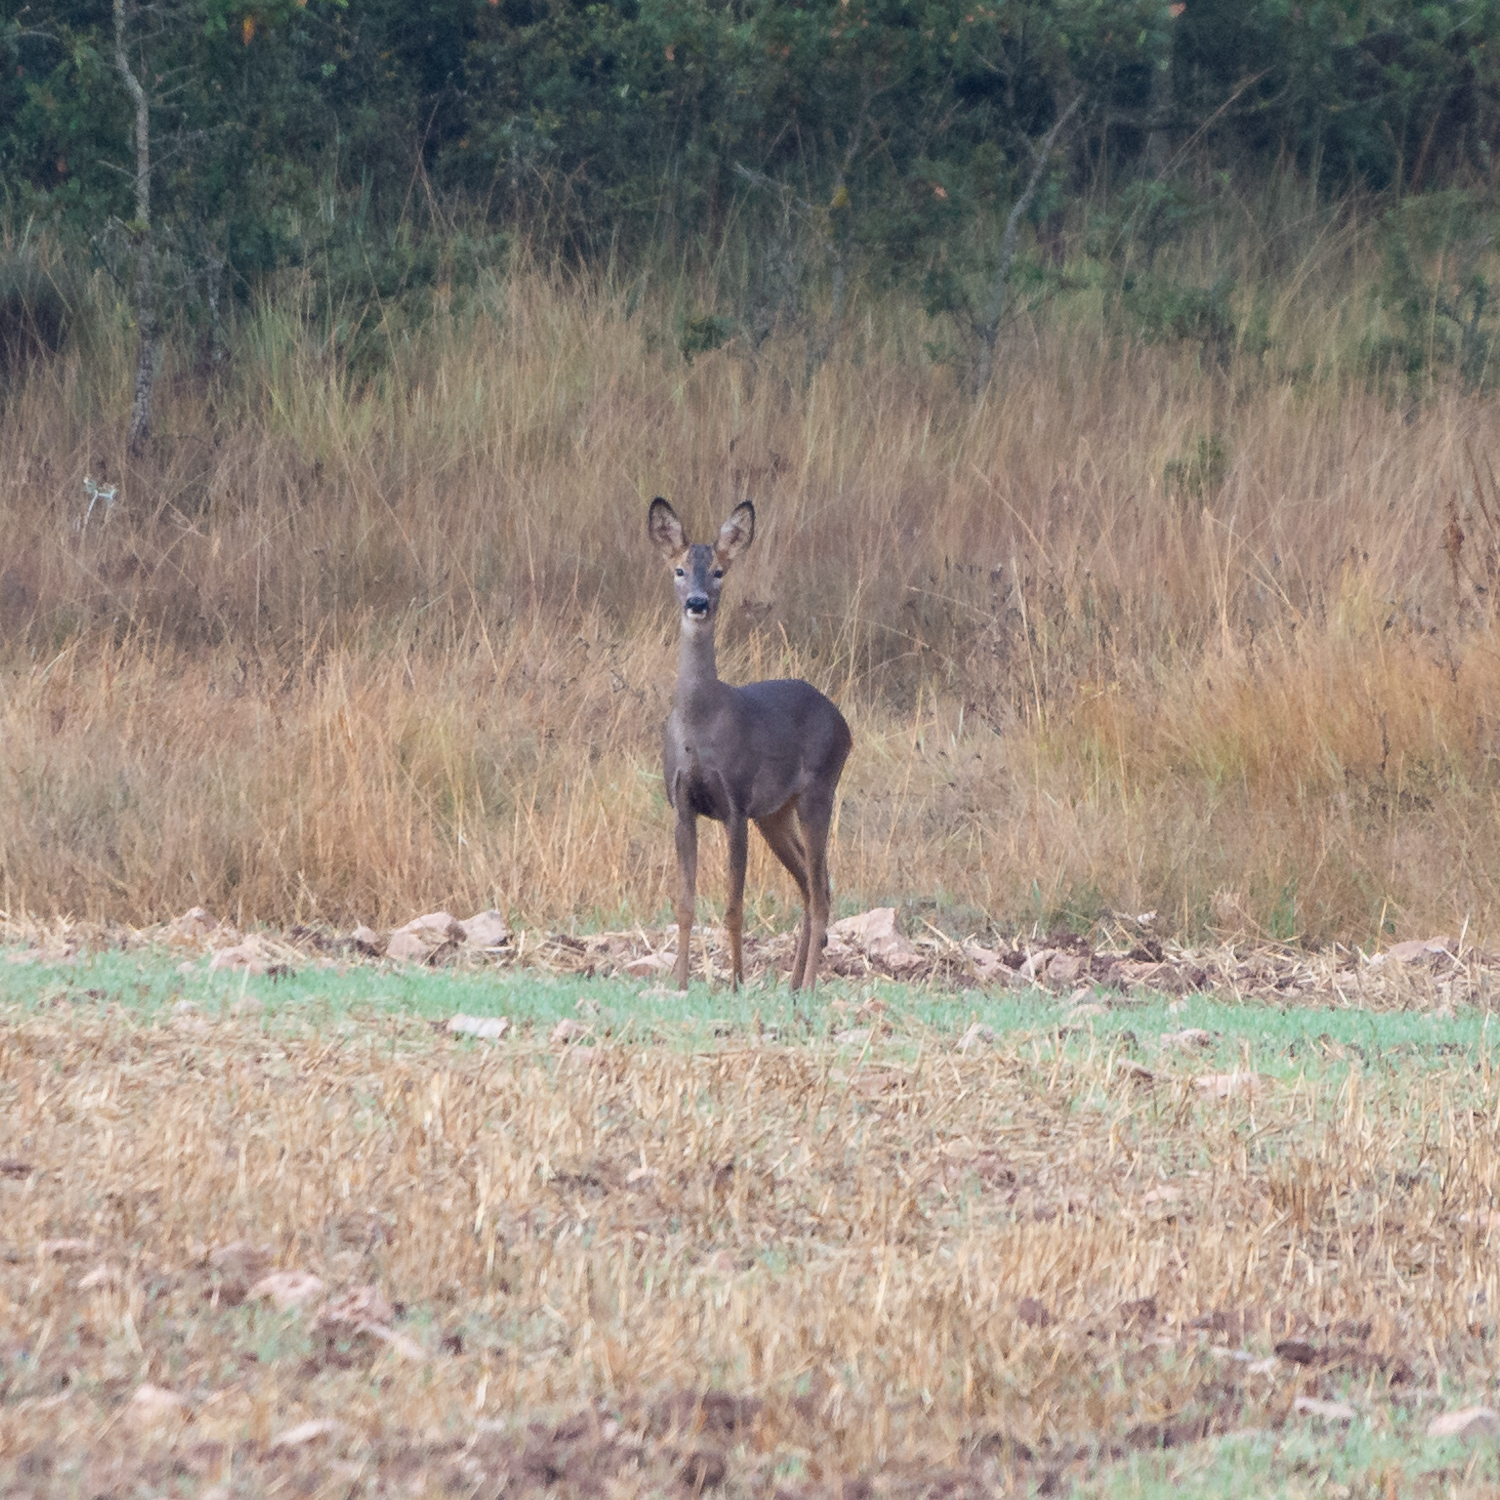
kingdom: Animalia
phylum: Chordata
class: Mammalia
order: Artiodactyla
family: Cervidae
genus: Capreolus
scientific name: Capreolus capreolus
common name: Western roe deer
